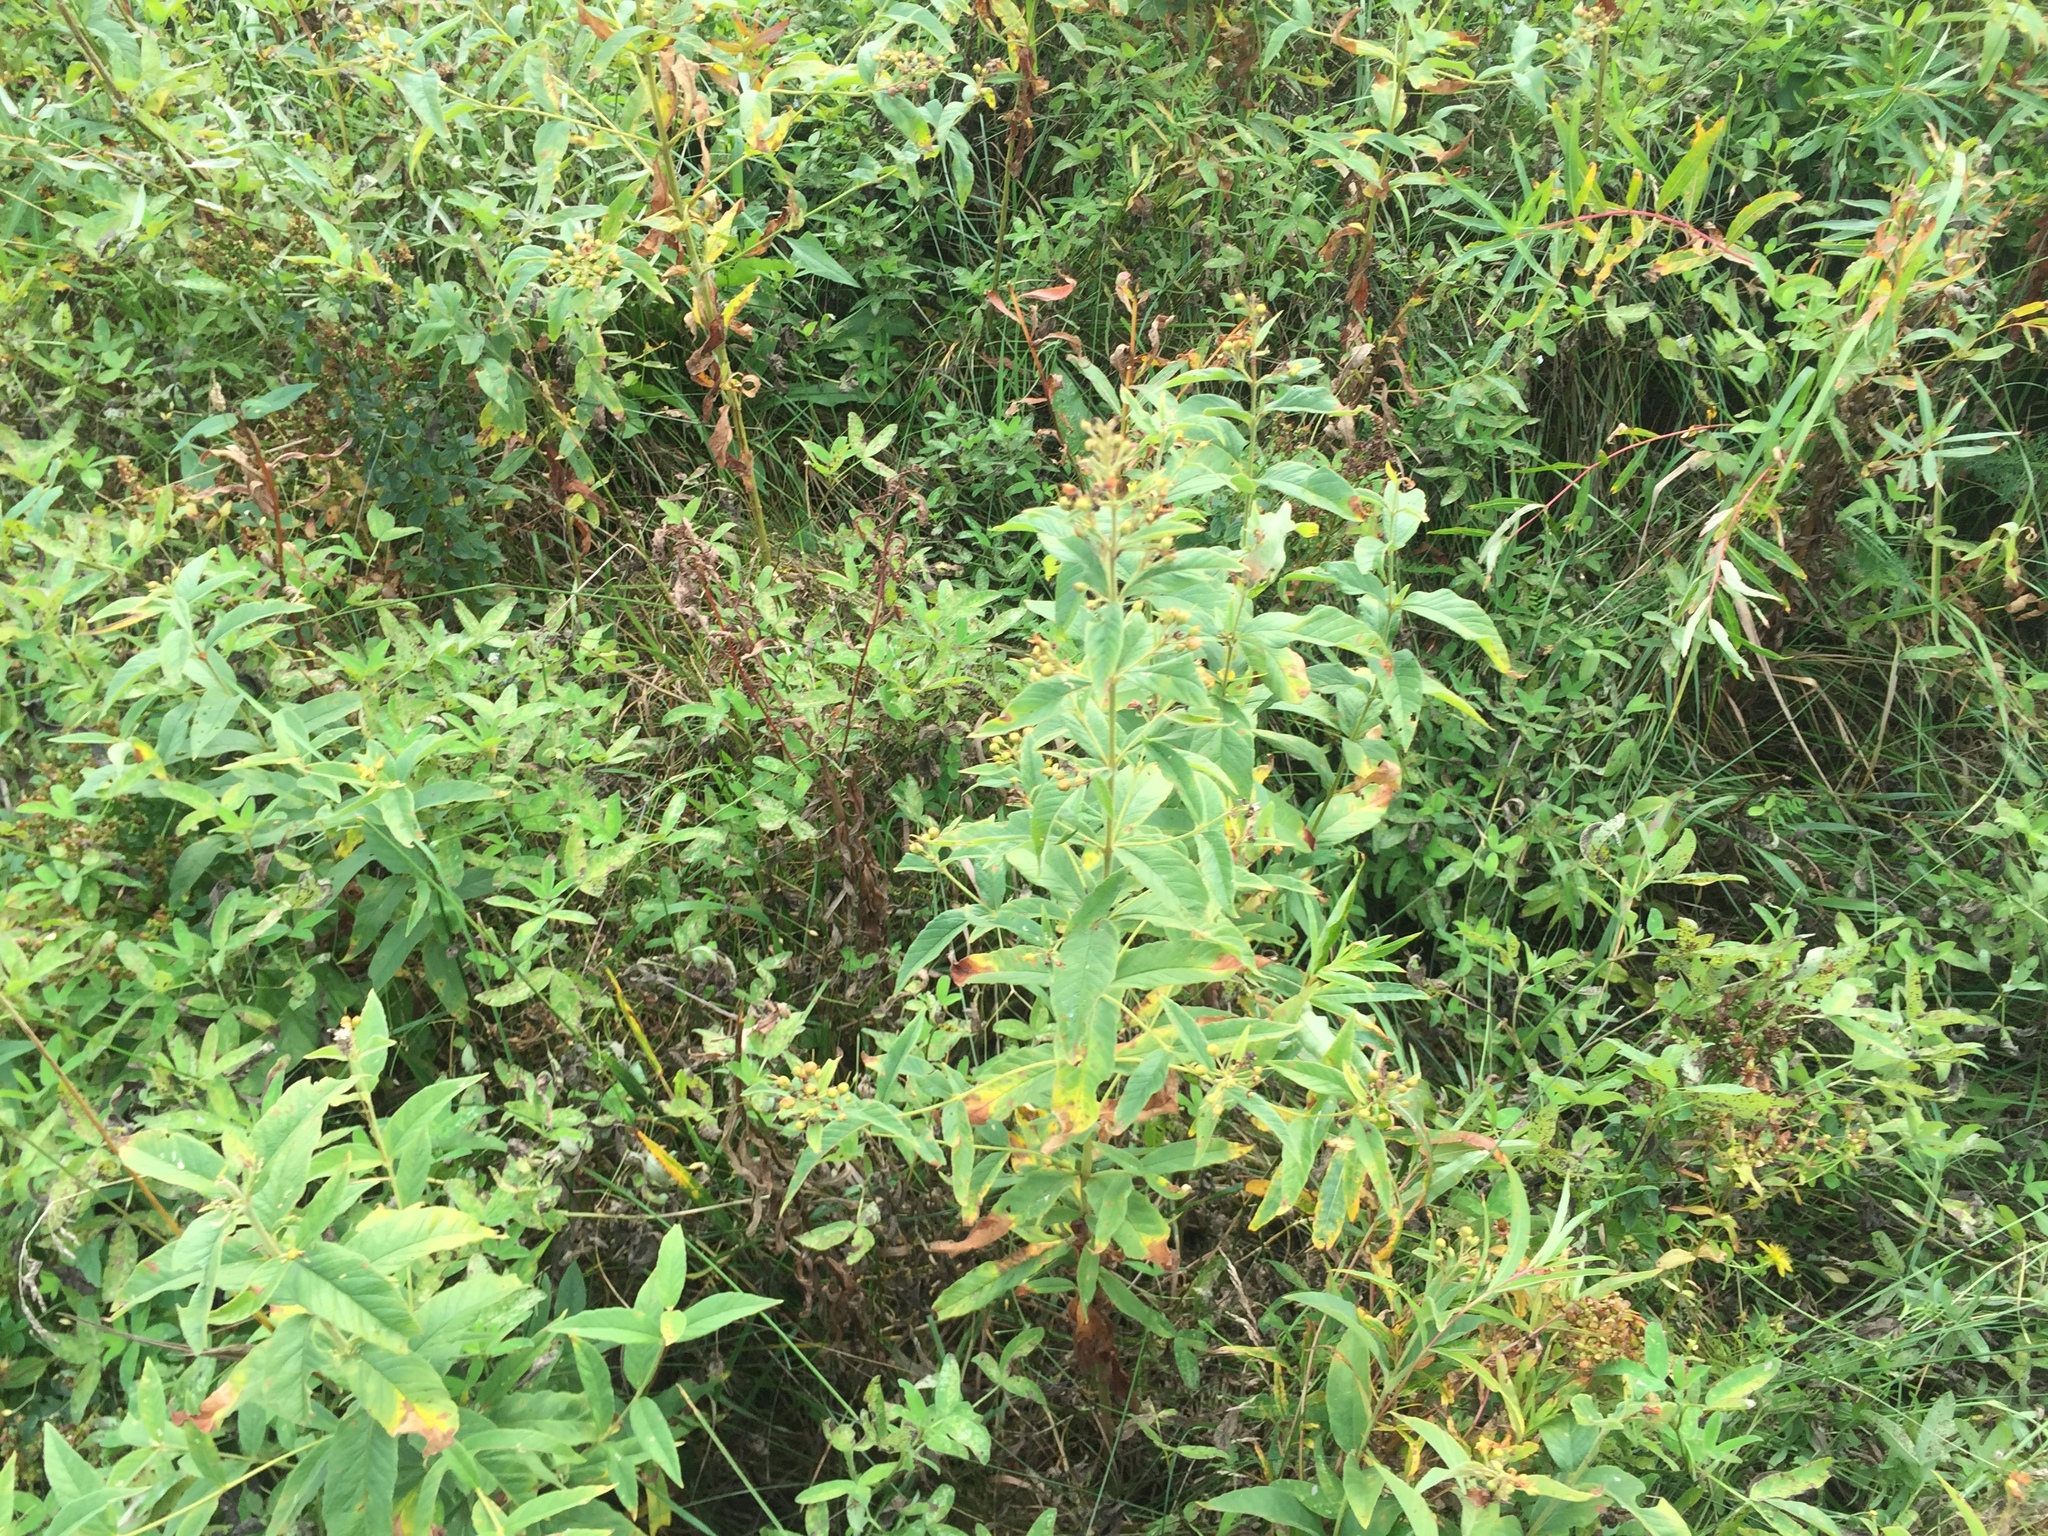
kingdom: Plantae
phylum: Tracheophyta
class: Magnoliopsida
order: Ericales
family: Primulaceae
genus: Lysimachia
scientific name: Lysimachia vulgaris
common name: Yellow loosestrife
